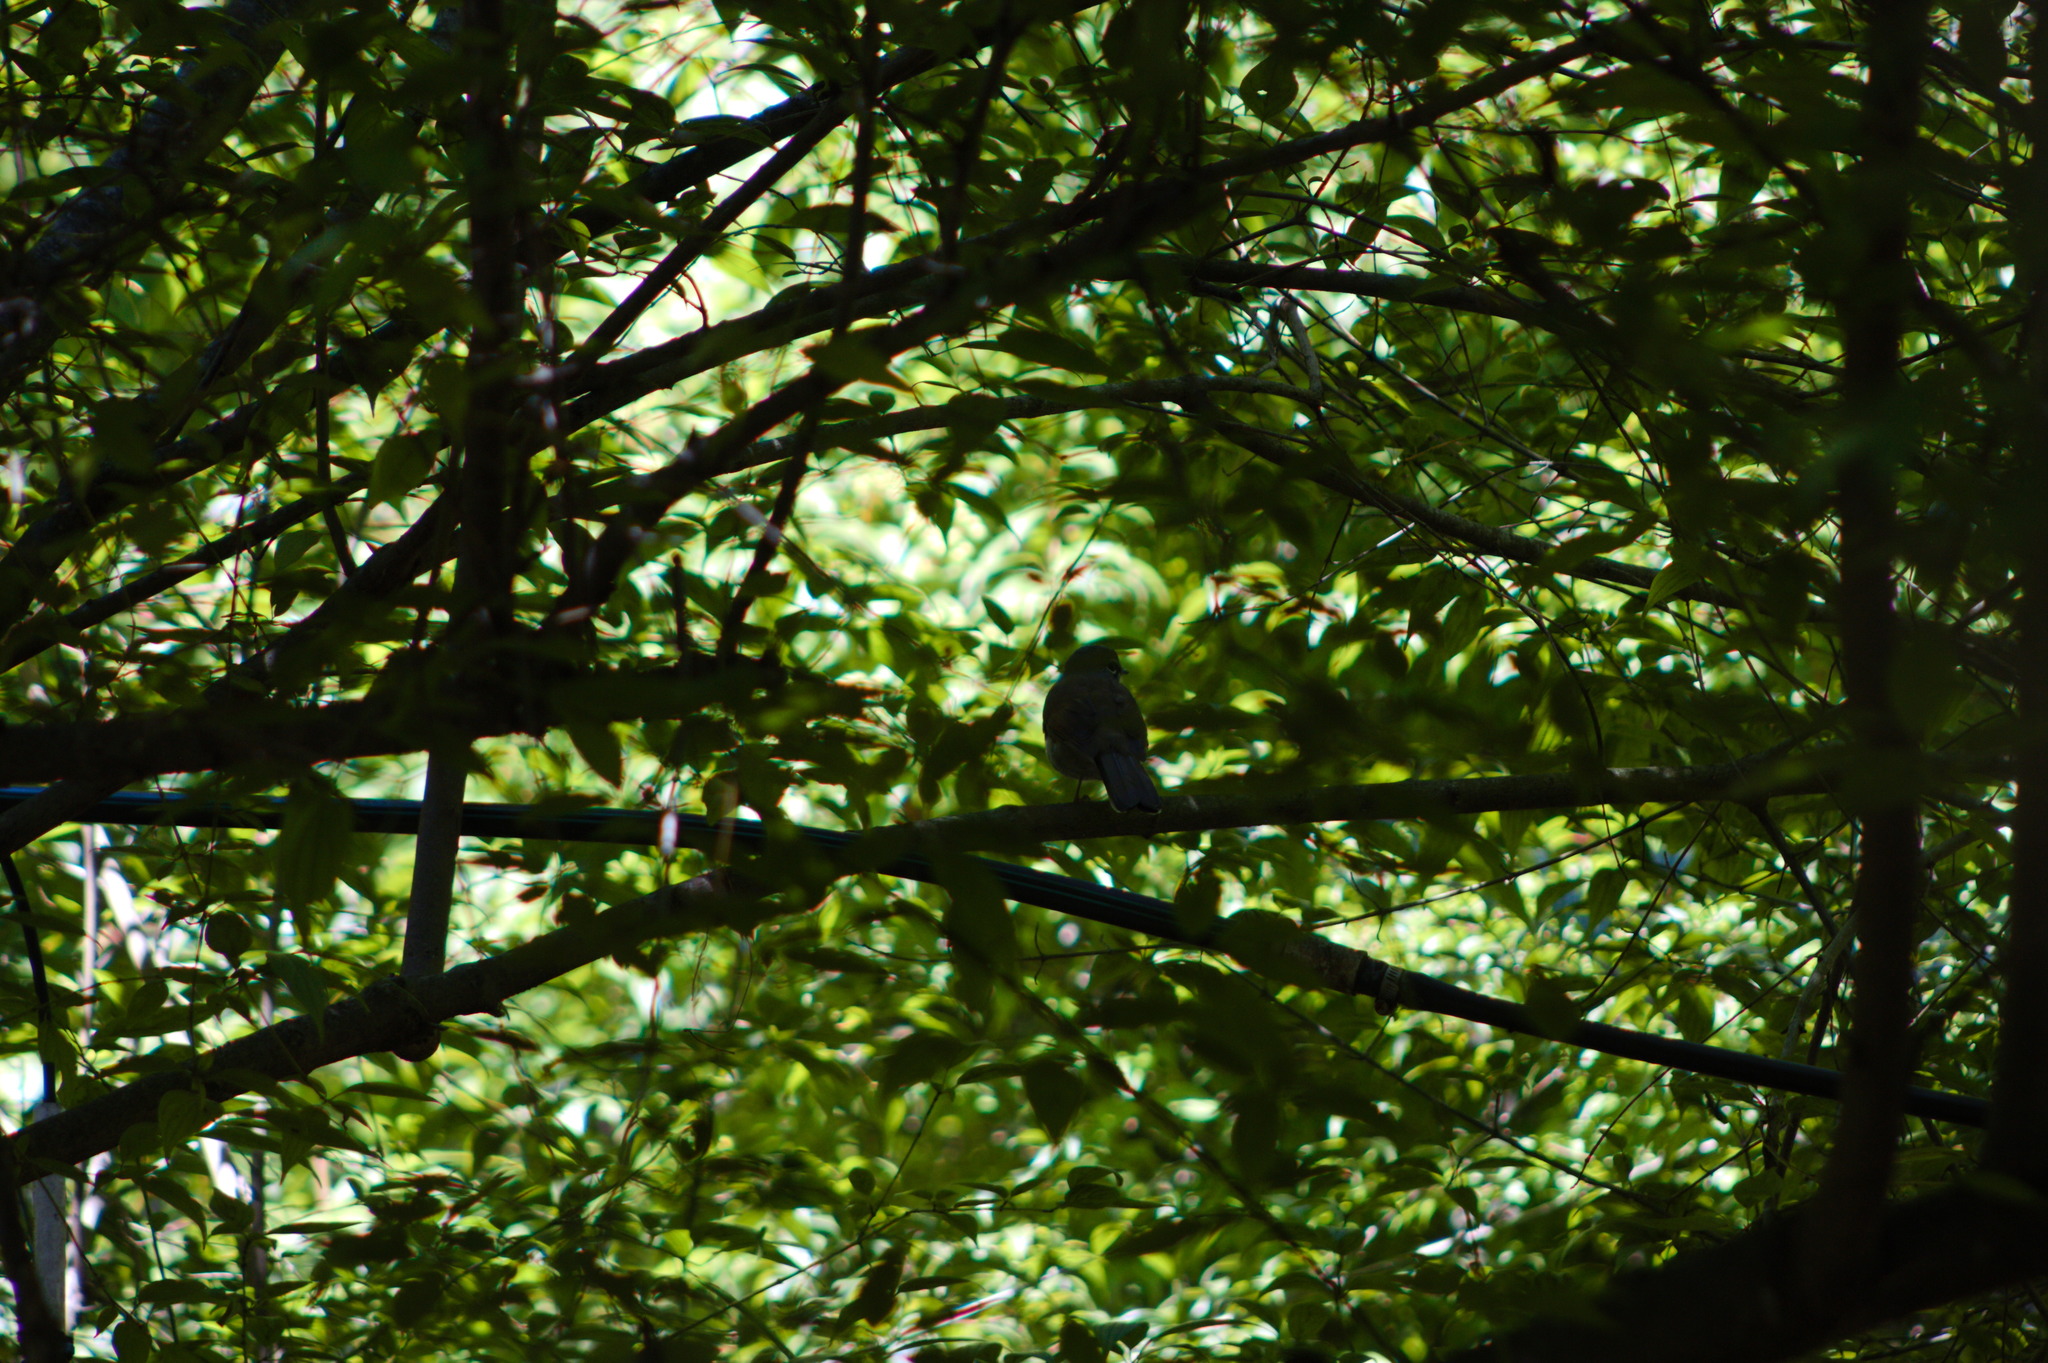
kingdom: Animalia
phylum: Chordata
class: Aves
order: Passeriformes
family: Turdidae
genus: Myadestes
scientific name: Myadestes occidentalis
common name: Brown-backed solitaire
